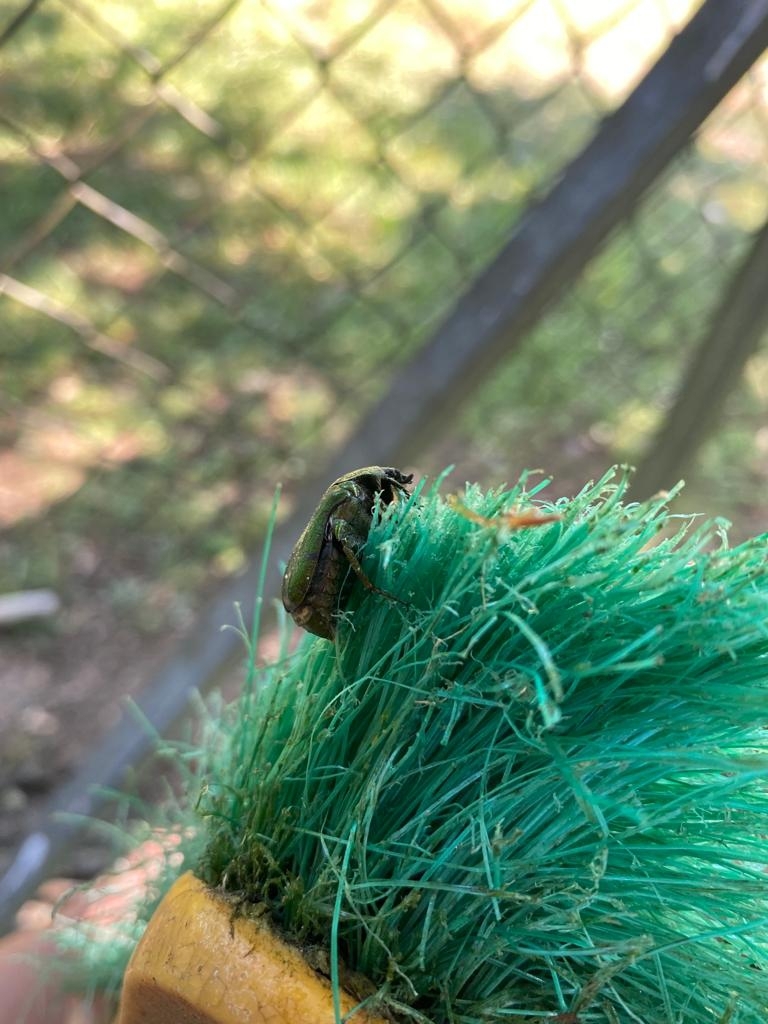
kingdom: Animalia
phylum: Arthropoda
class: Insecta
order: Coleoptera
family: Scarabaeidae
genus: Cetonia
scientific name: Cetonia
